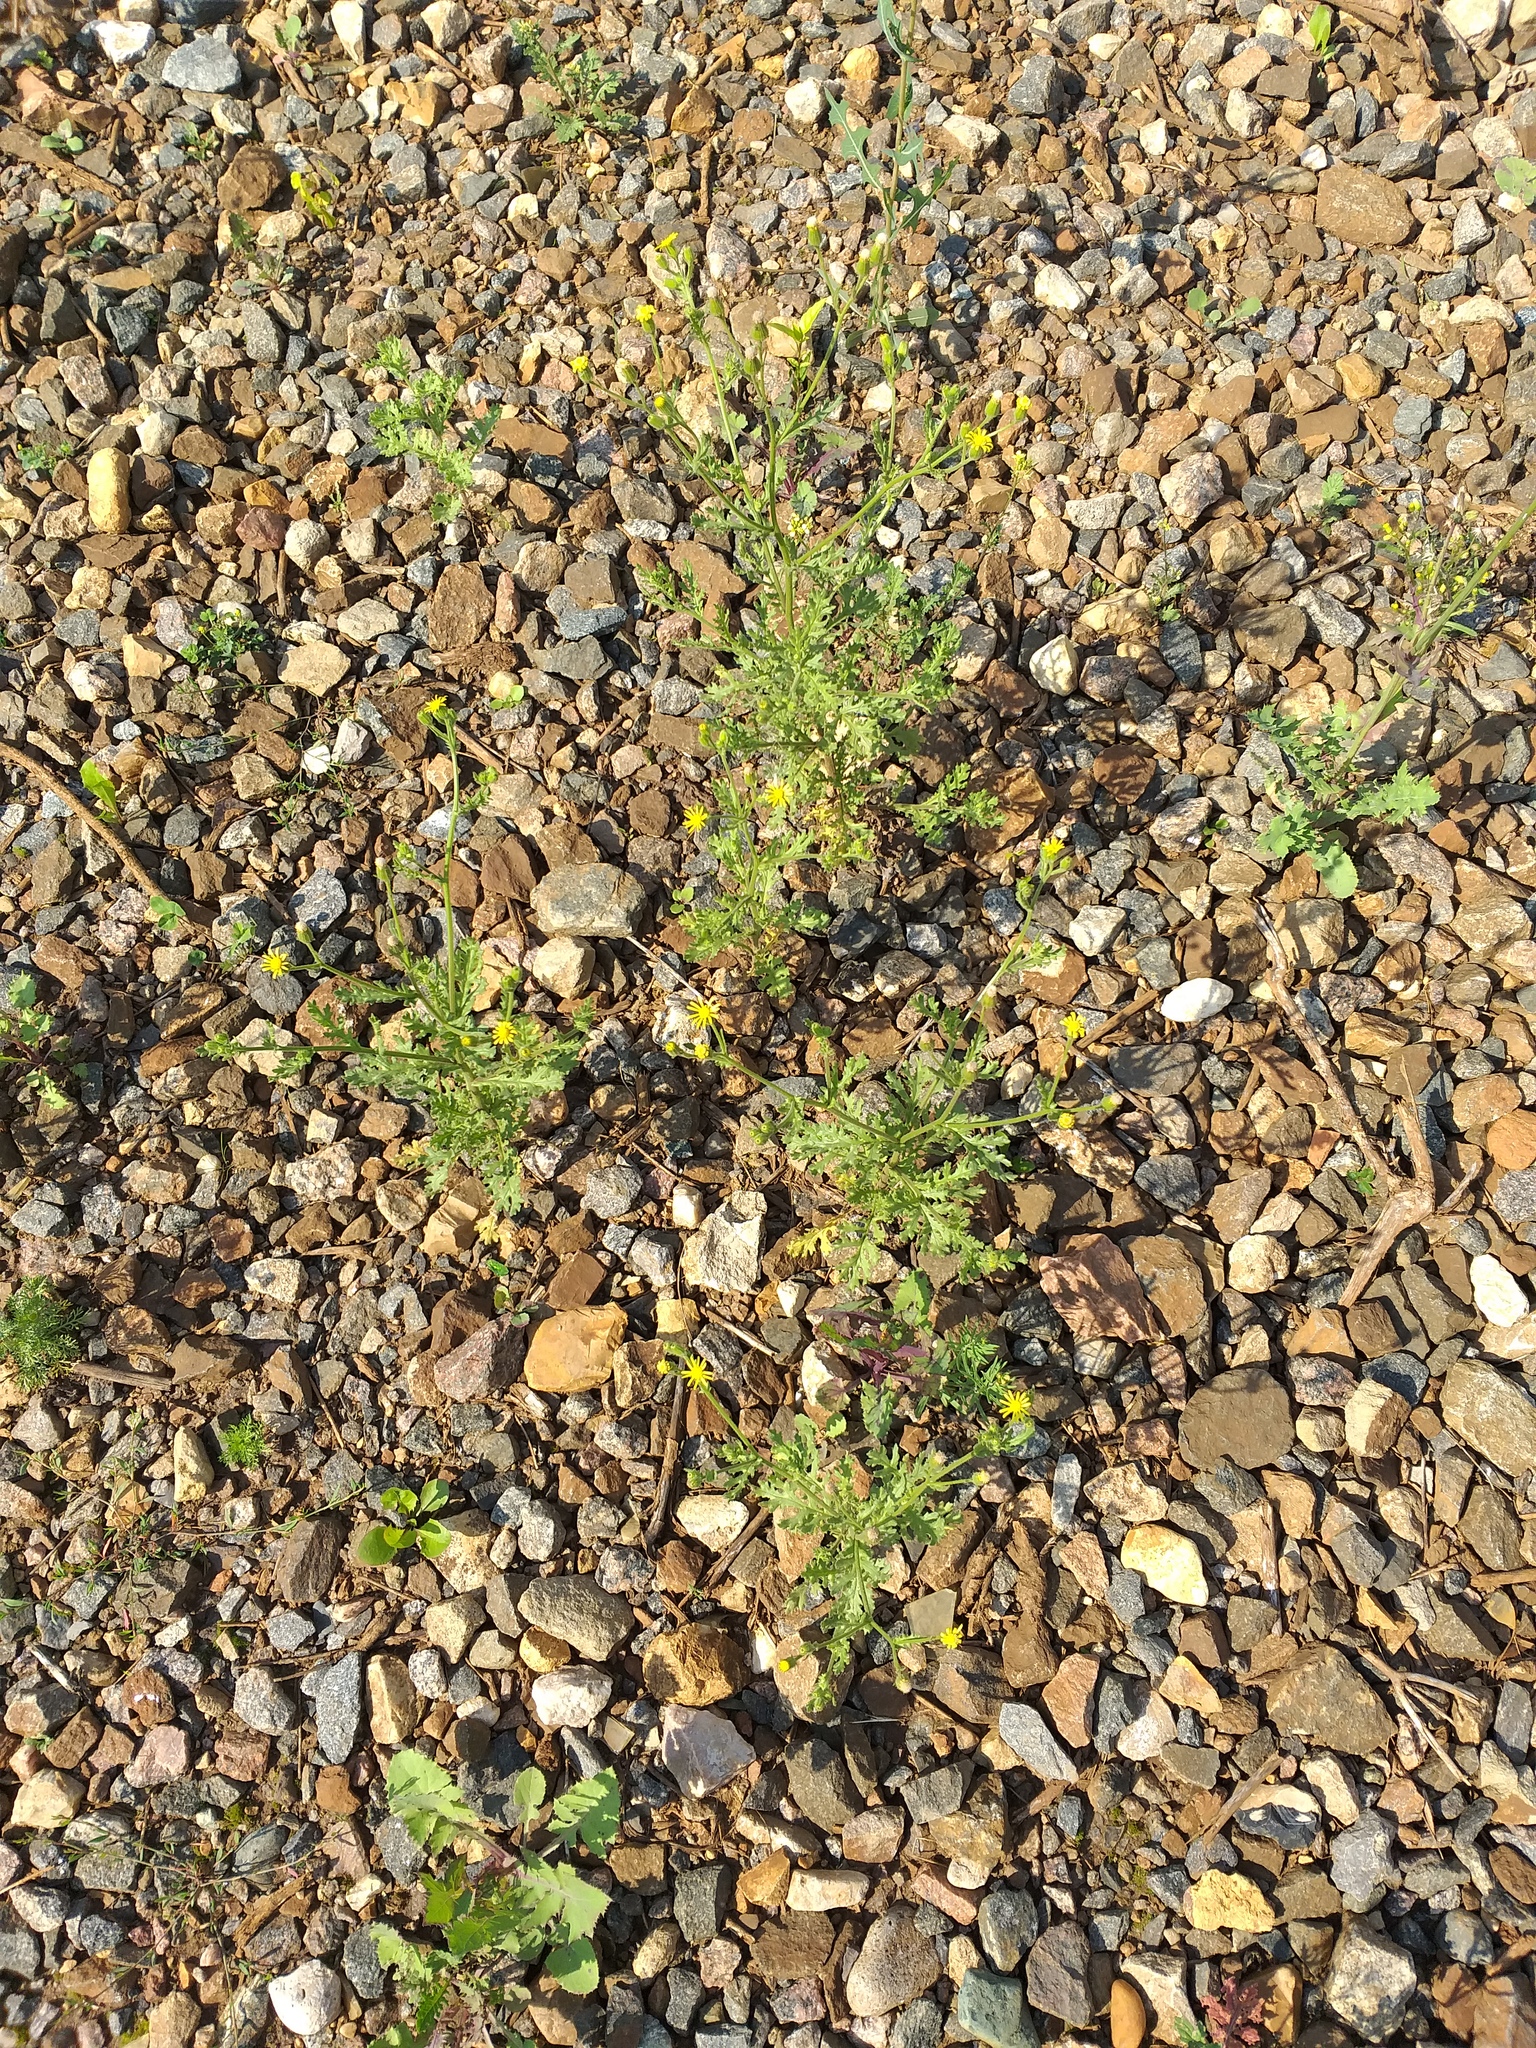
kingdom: Plantae
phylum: Tracheophyta
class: Magnoliopsida
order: Asterales
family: Asteraceae
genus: Senecio
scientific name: Senecio viscosus
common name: Sticky groundsel
